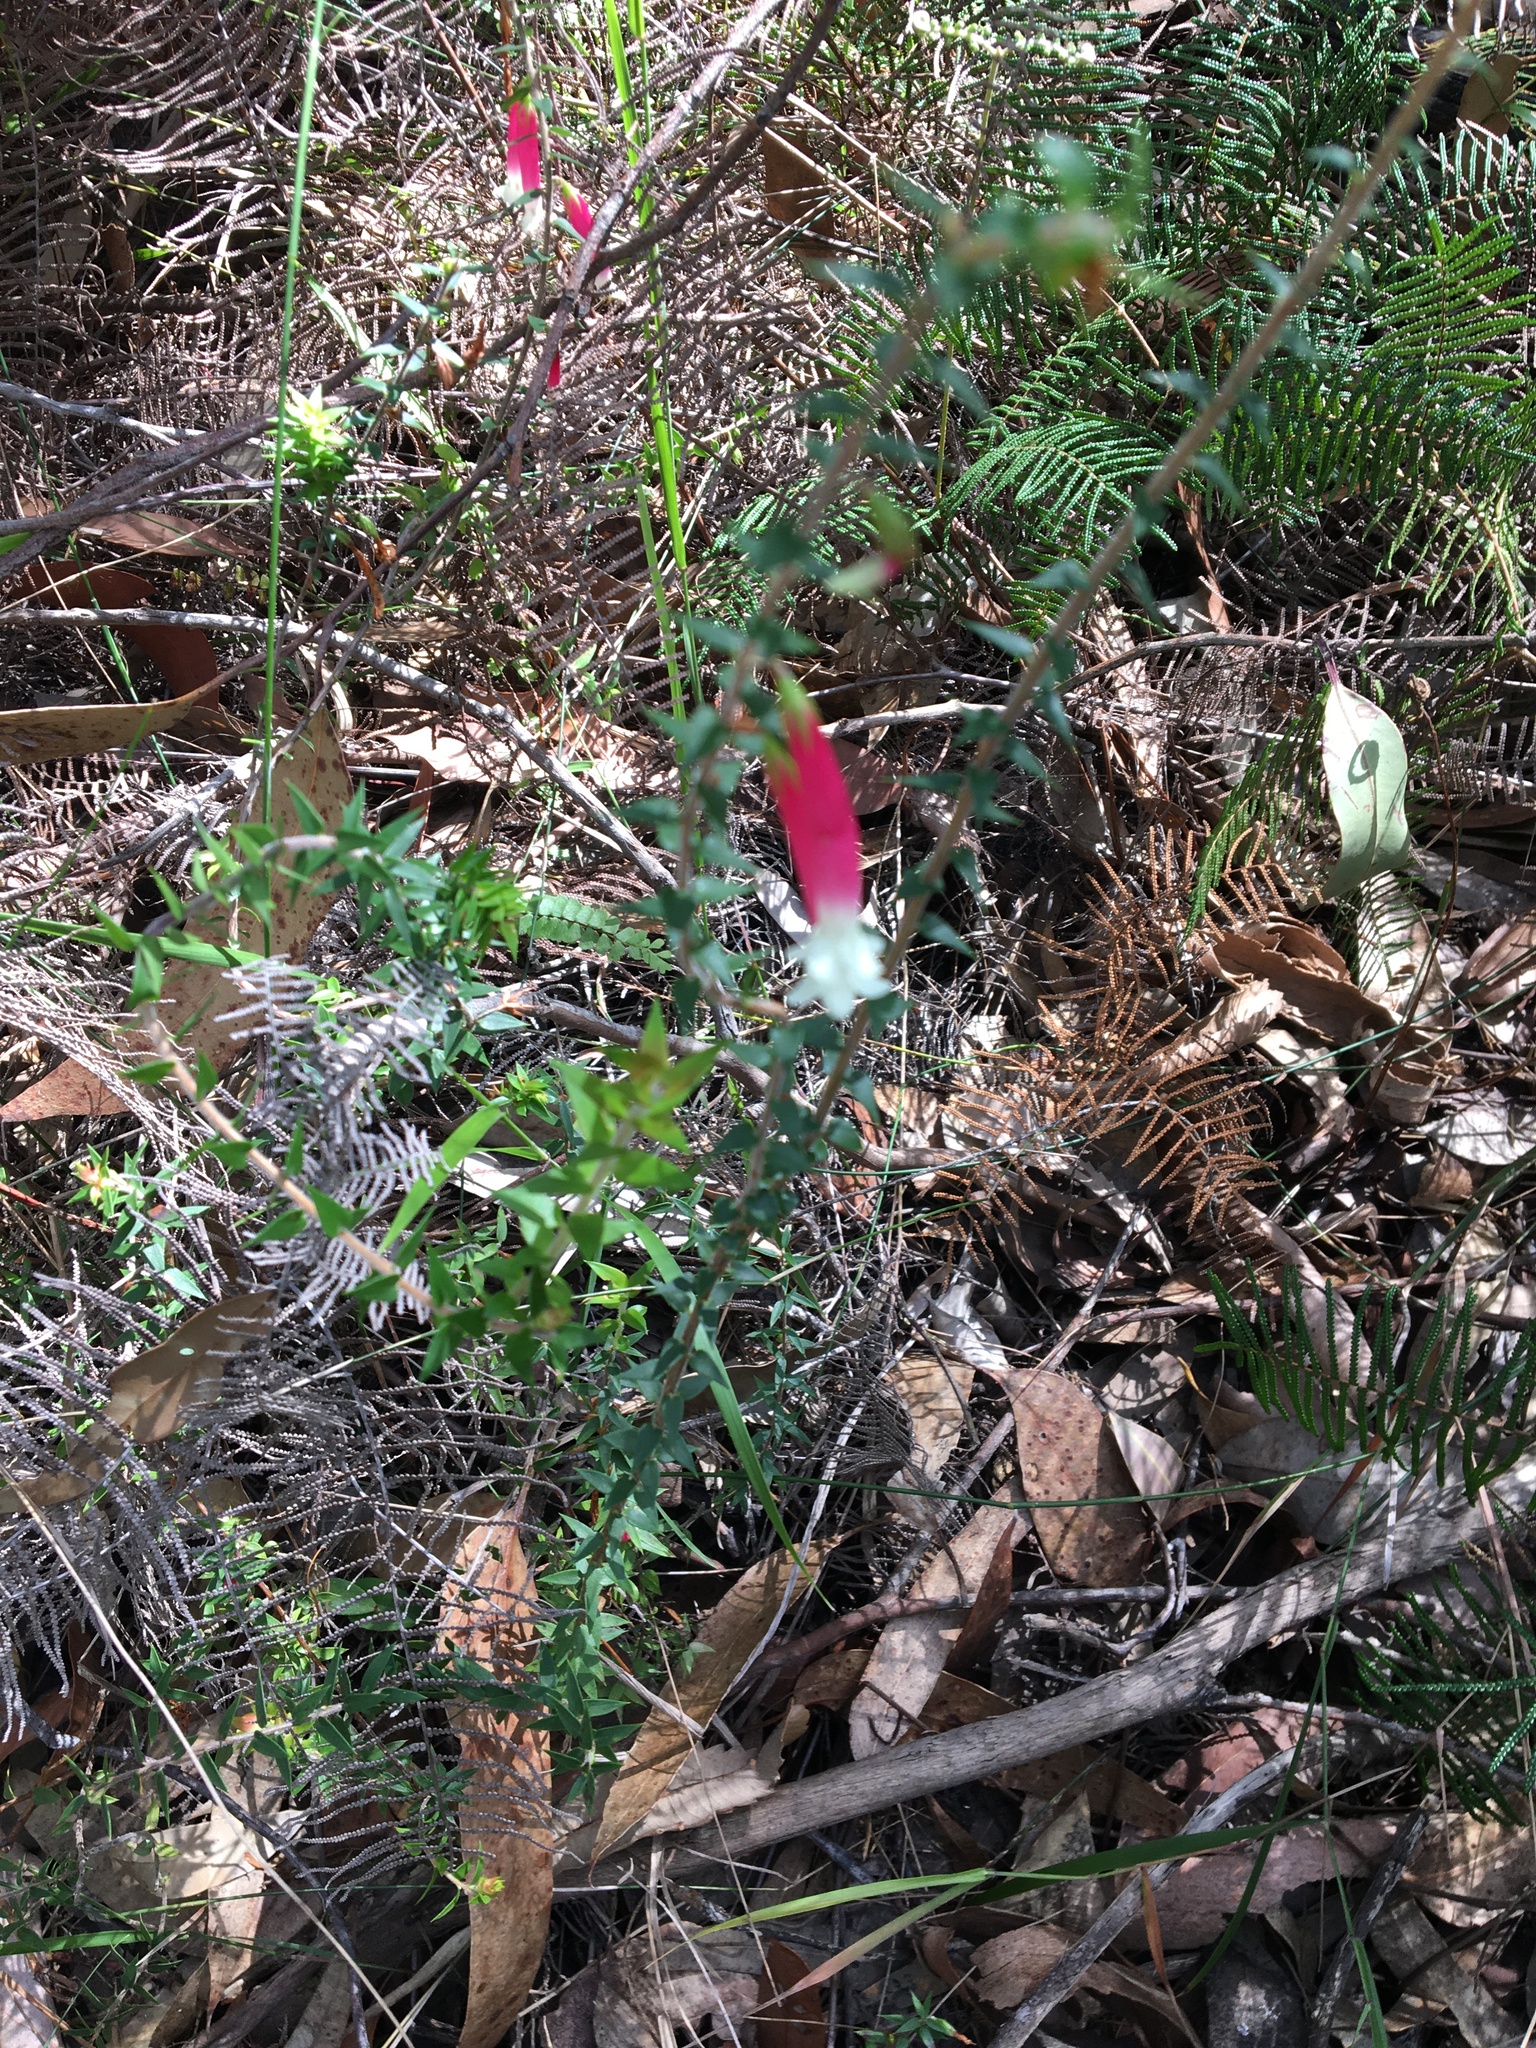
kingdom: Plantae
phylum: Tracheophyta
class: Magnoliopsida
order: Ericales
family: Ericaceae
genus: Epacris
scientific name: Epacris longiflora
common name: Fuchsia-heath
